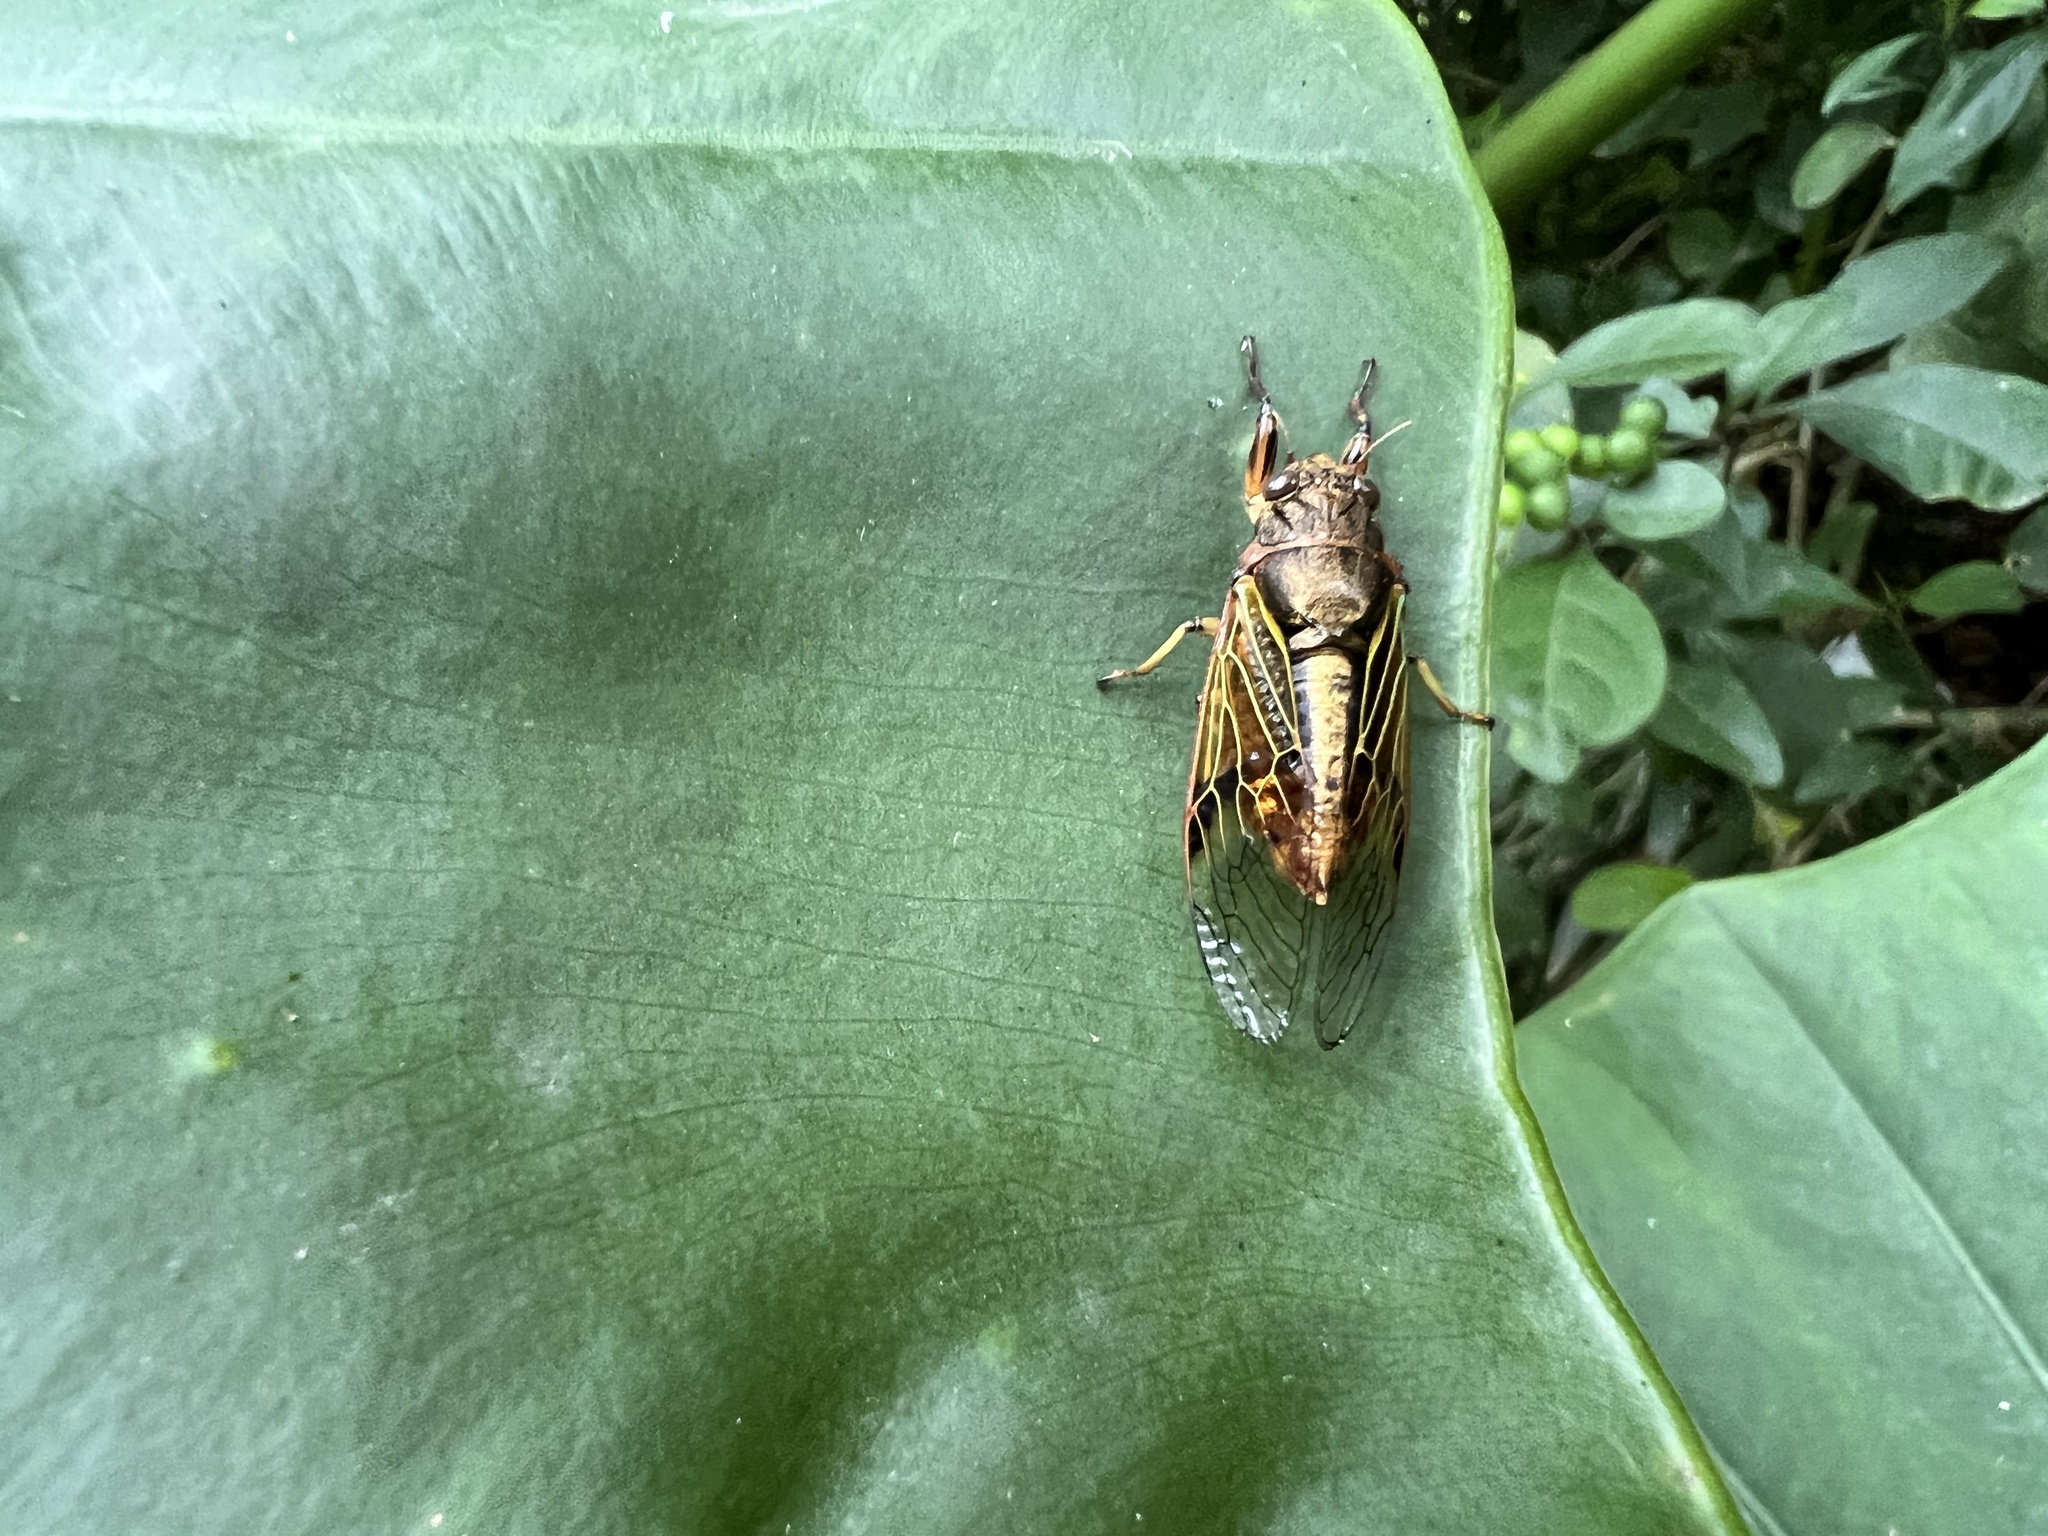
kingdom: Animalia
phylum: Arthropoda
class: Insecta
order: Hemiptera
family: Cicadidae
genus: Mogannia
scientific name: Mogannia formosana
